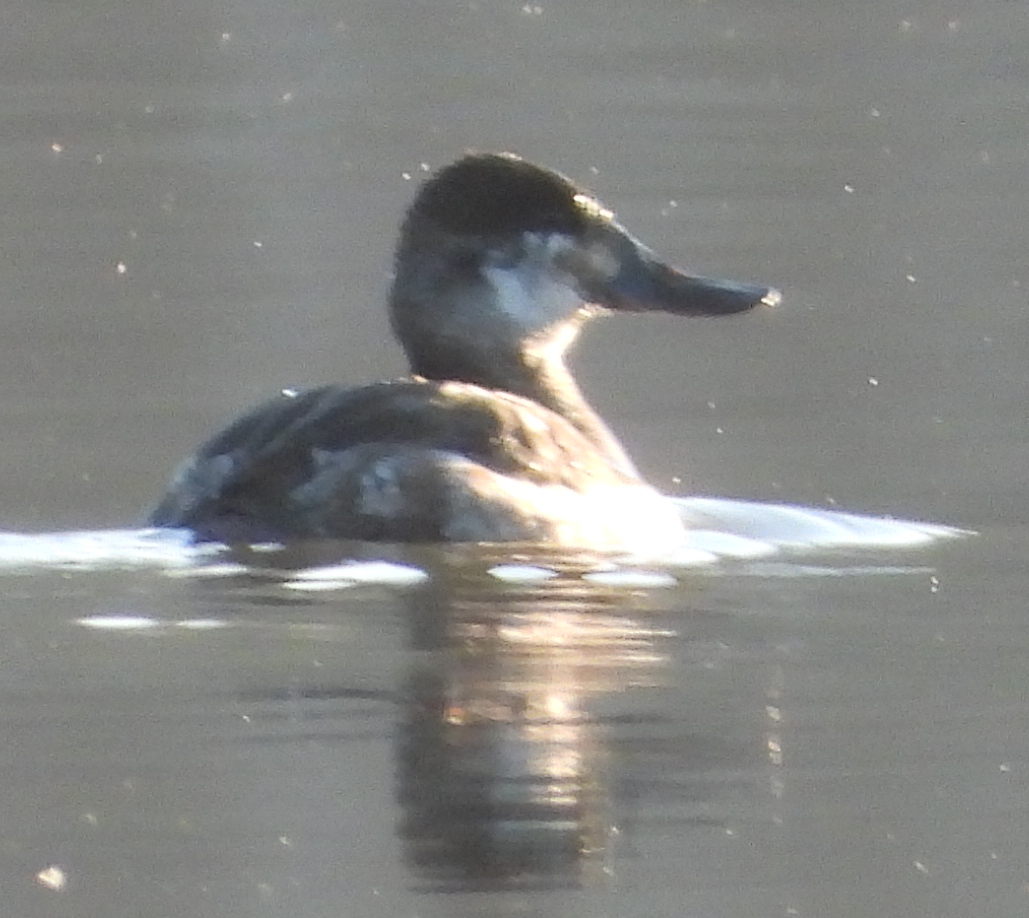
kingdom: Animalia
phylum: Chordata
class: Aves
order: Anseriformes
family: Anatidae
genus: Oxyura
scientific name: Oxyura jamaicensis
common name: Ruddy duck
